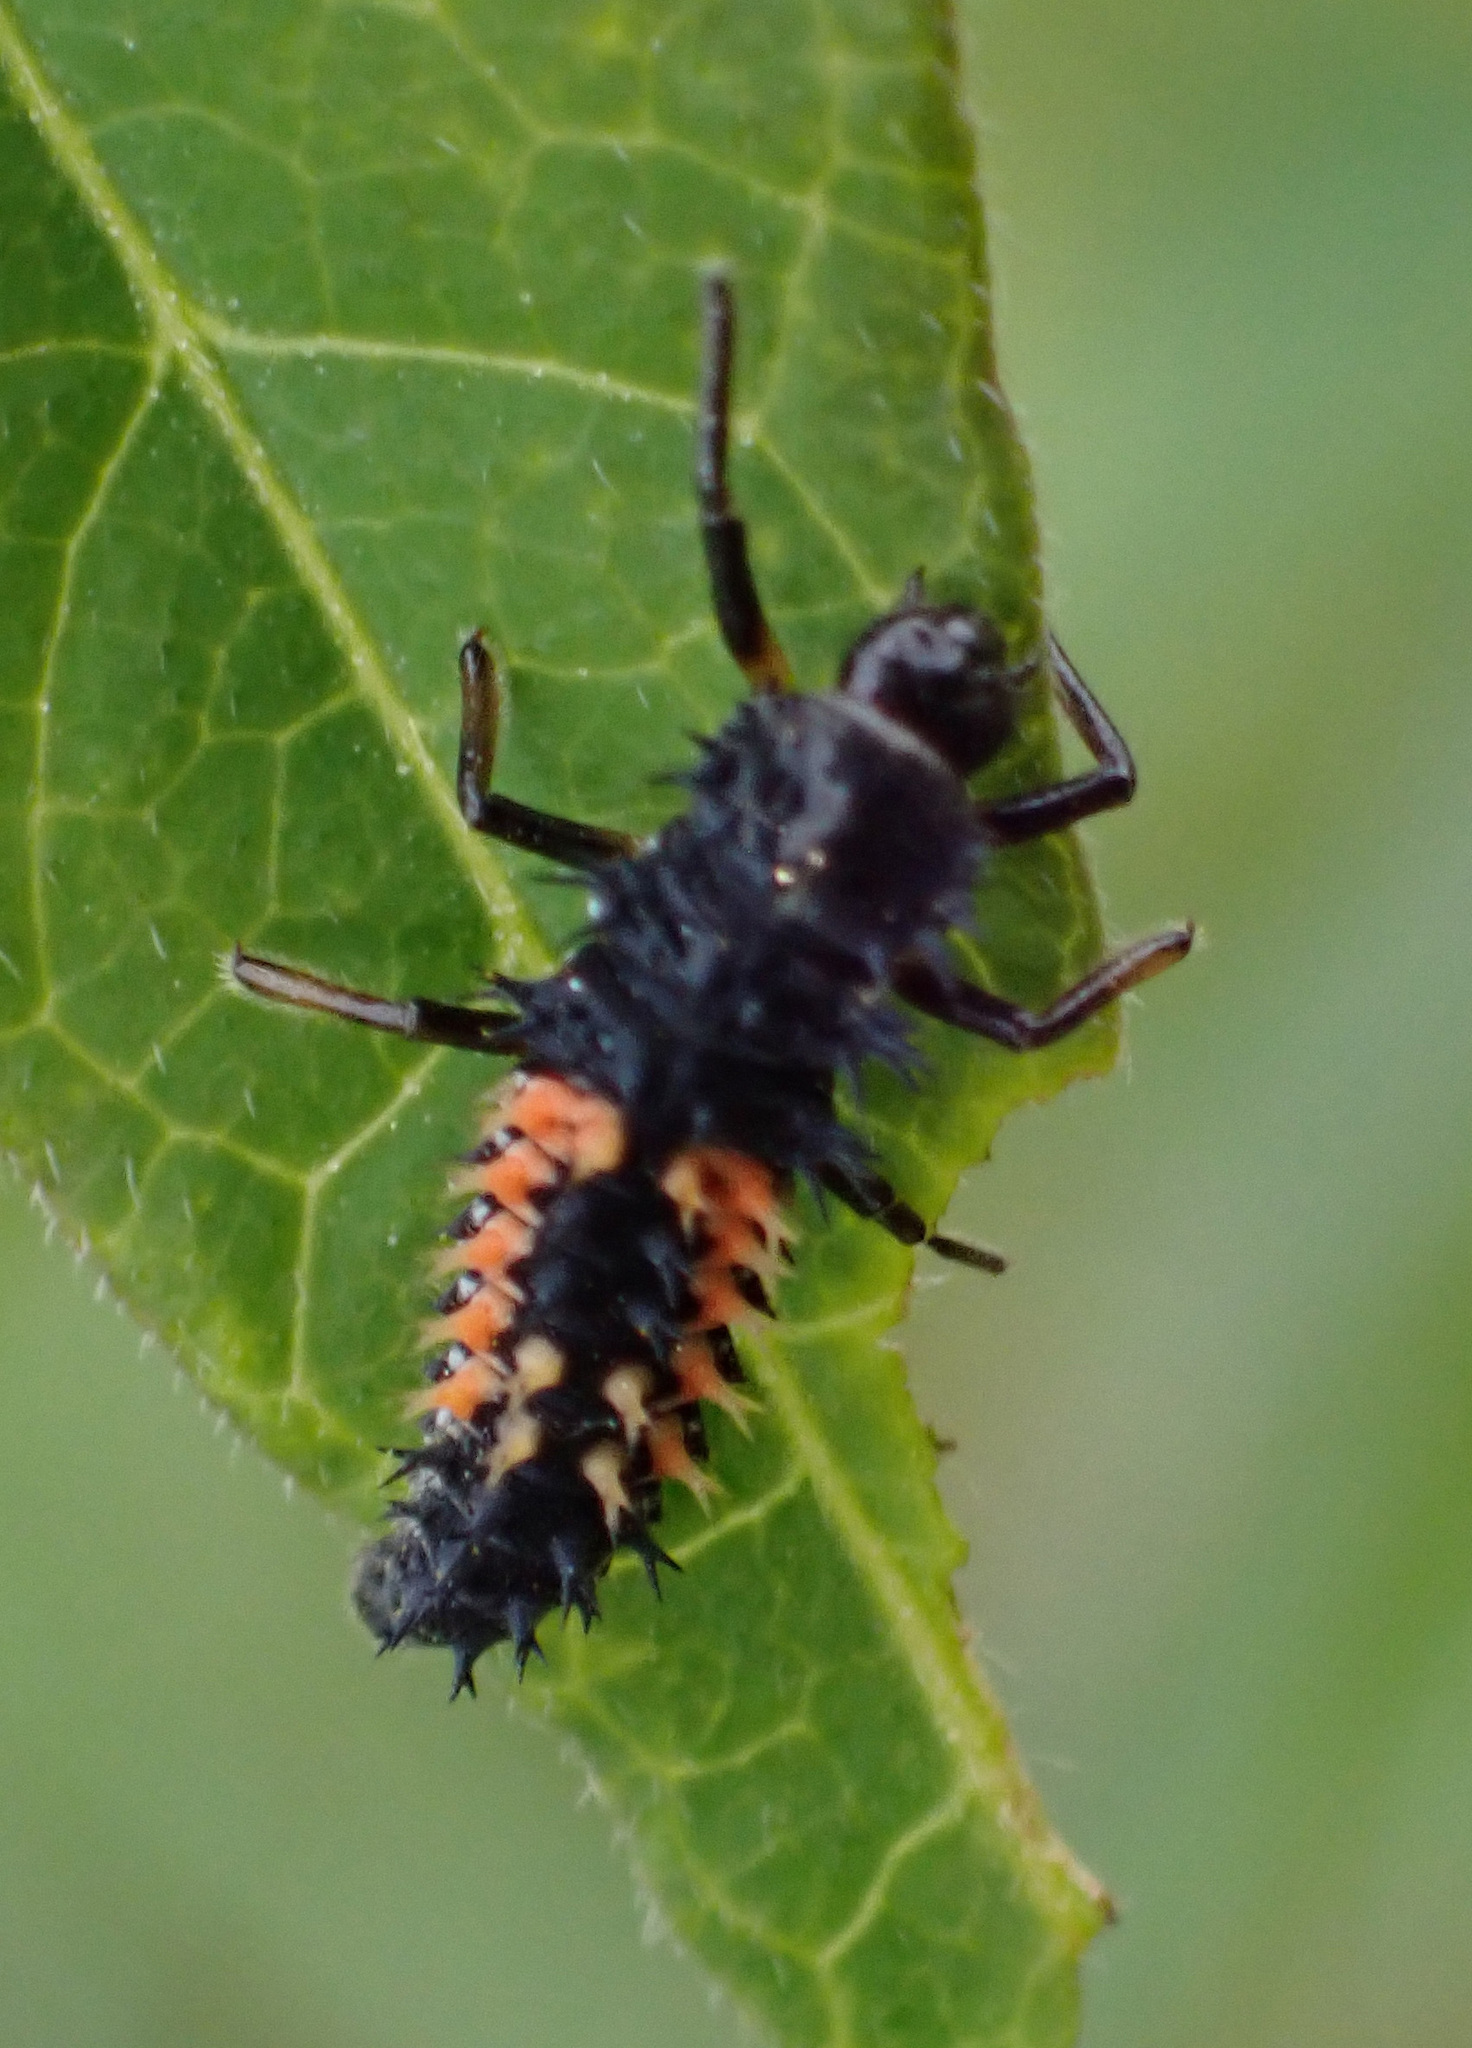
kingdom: Animalia
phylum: Arthropoda
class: Insecta
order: Coleoptera
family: Coccinellidae
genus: Harmonia
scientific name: Harmonia axyridis
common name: Harlequin ladybird
